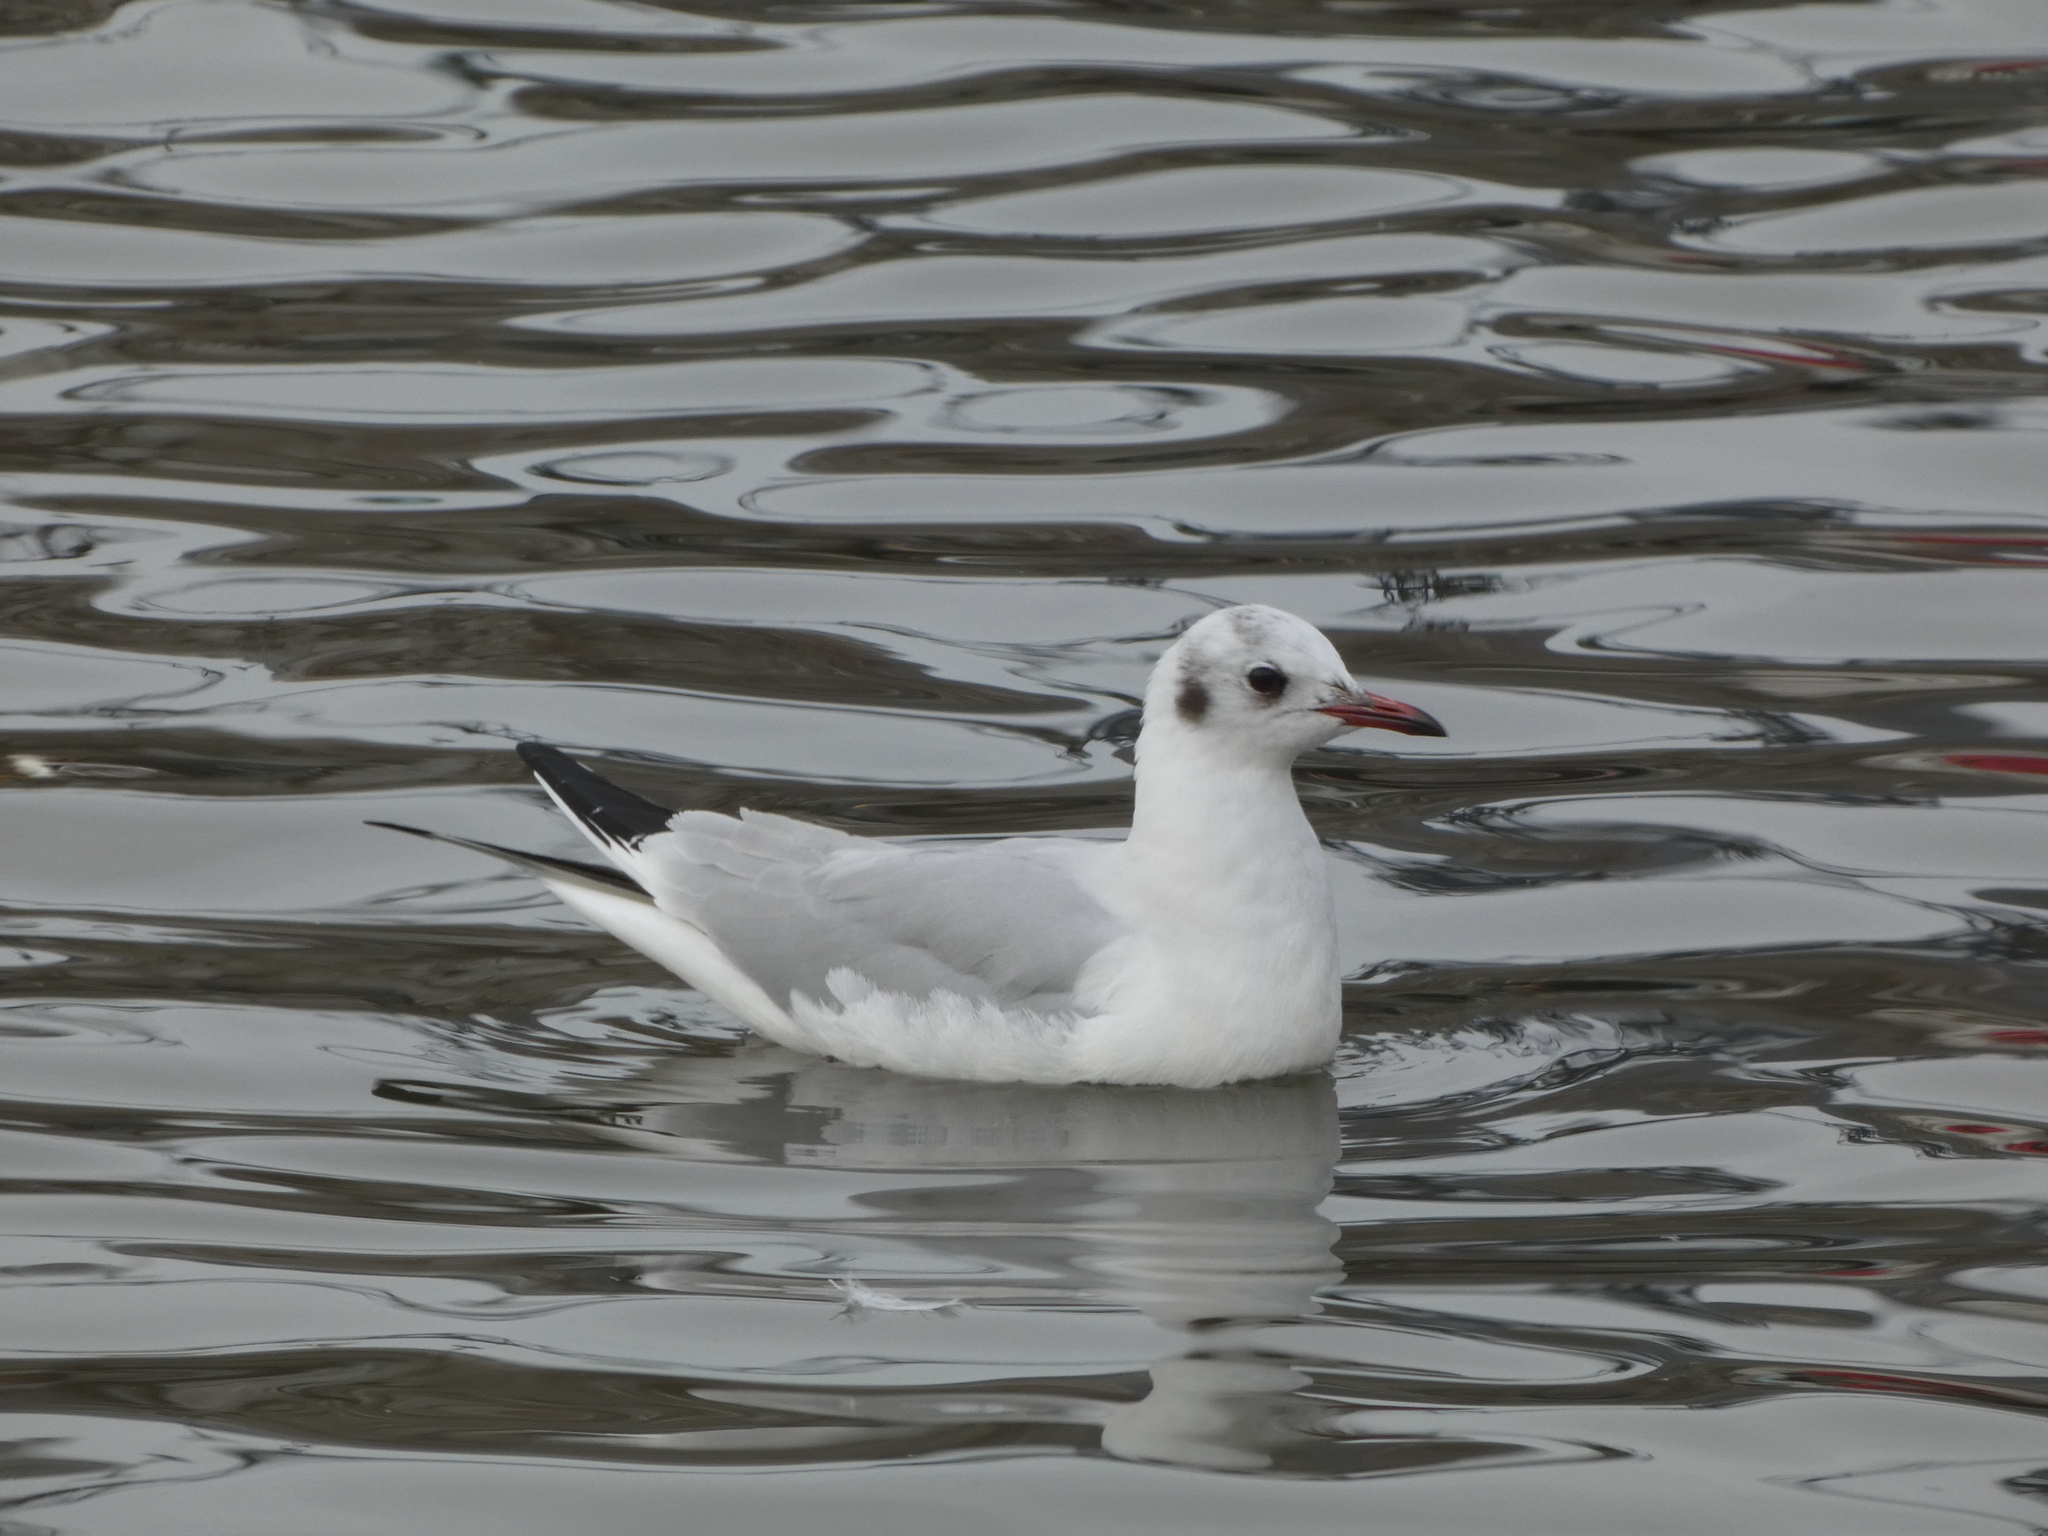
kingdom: Animalia
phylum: Chordata
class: Aves
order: Charadriiformes
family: Laridae
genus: Chroicocephalus
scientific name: Chroicocephalus ridibundus
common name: Black-headed gull
